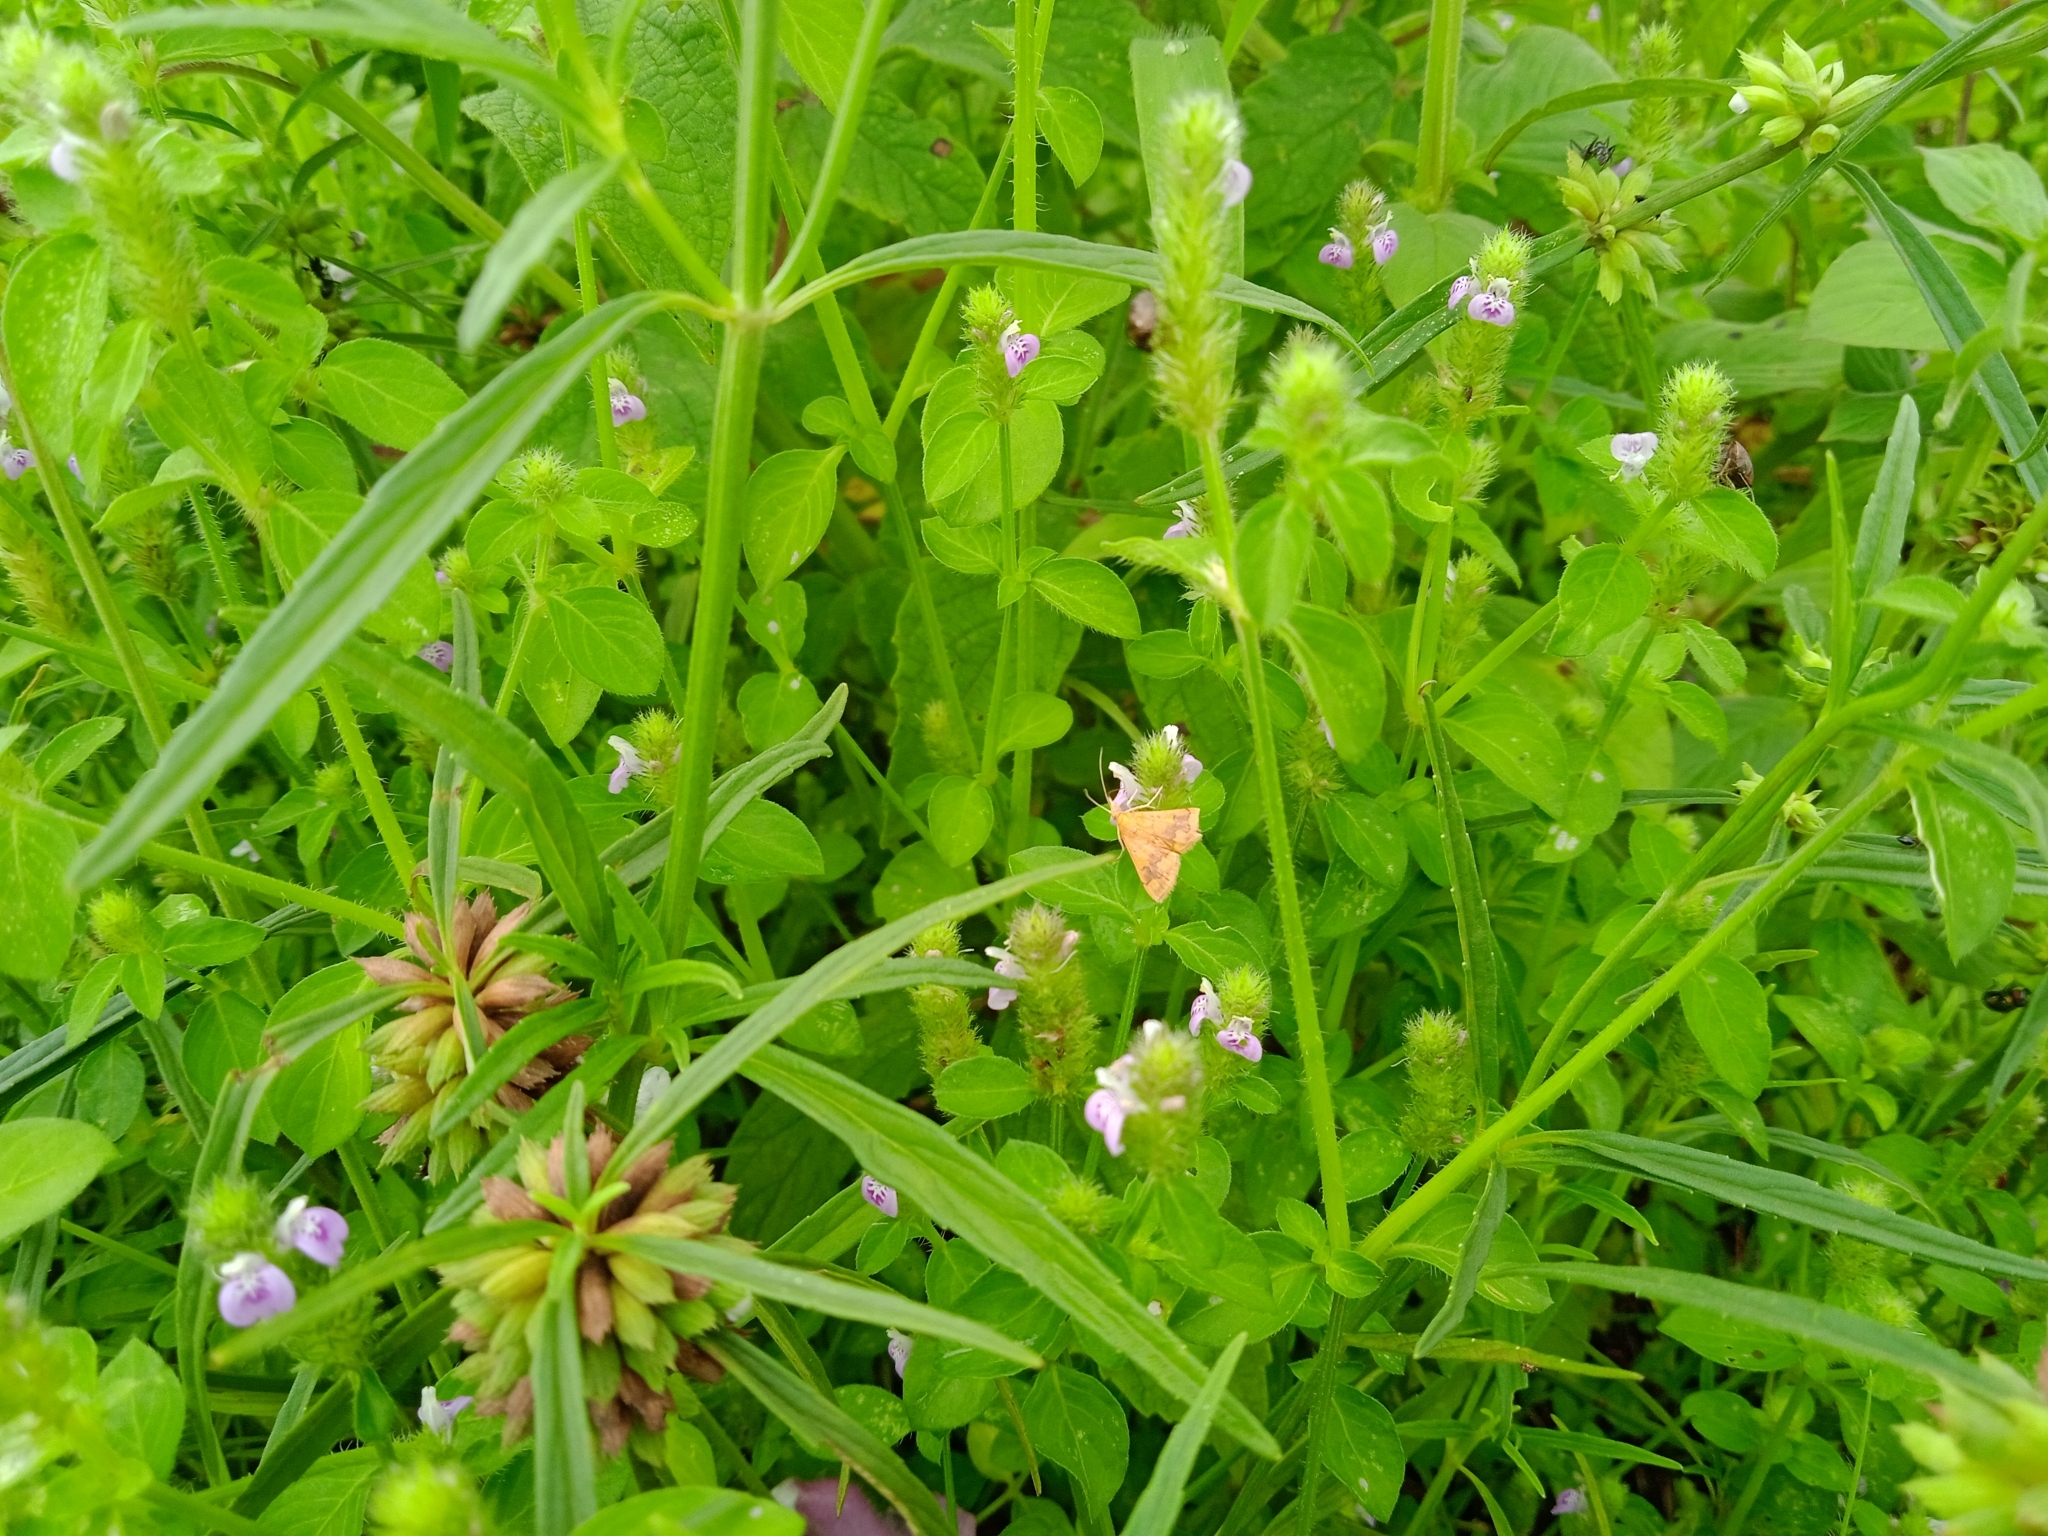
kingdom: Animalia
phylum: Arthropoda
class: Insecta
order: Lepidoptera
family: Crambidae
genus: Pyrausta
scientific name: Pyrausta phoenicealis
